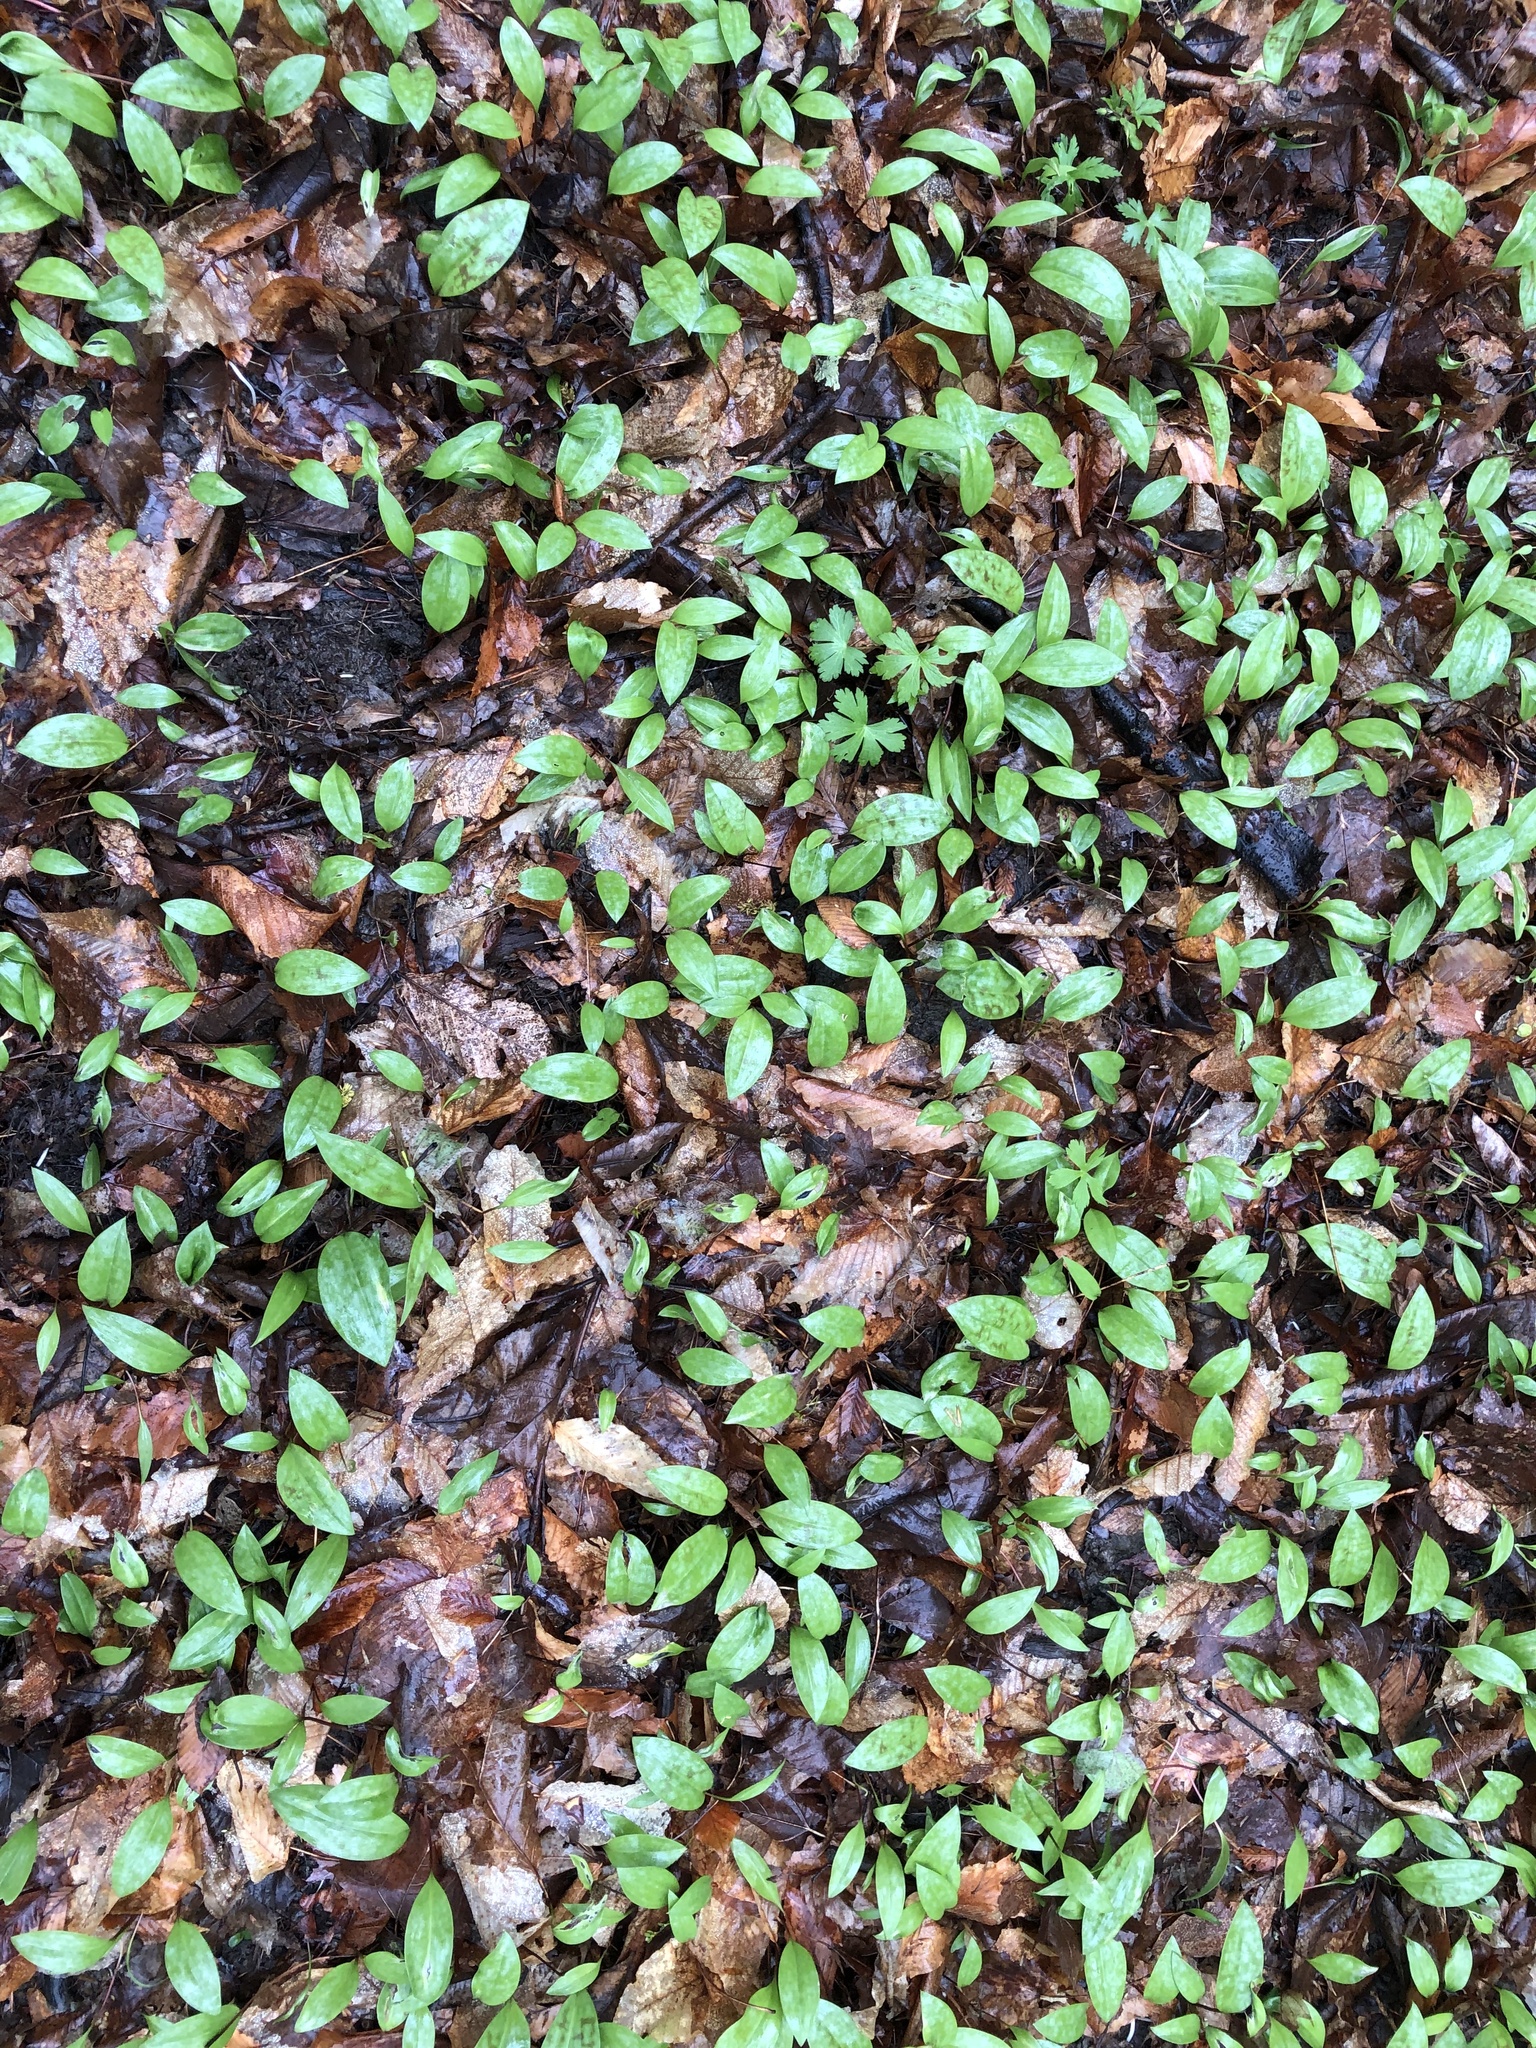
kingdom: Plantae
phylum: Tracheophyta
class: Liliopsida
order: Liliales
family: Liliaceae
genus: Erythronium
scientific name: Erythronium americanum
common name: Yellow adder's-tongue
